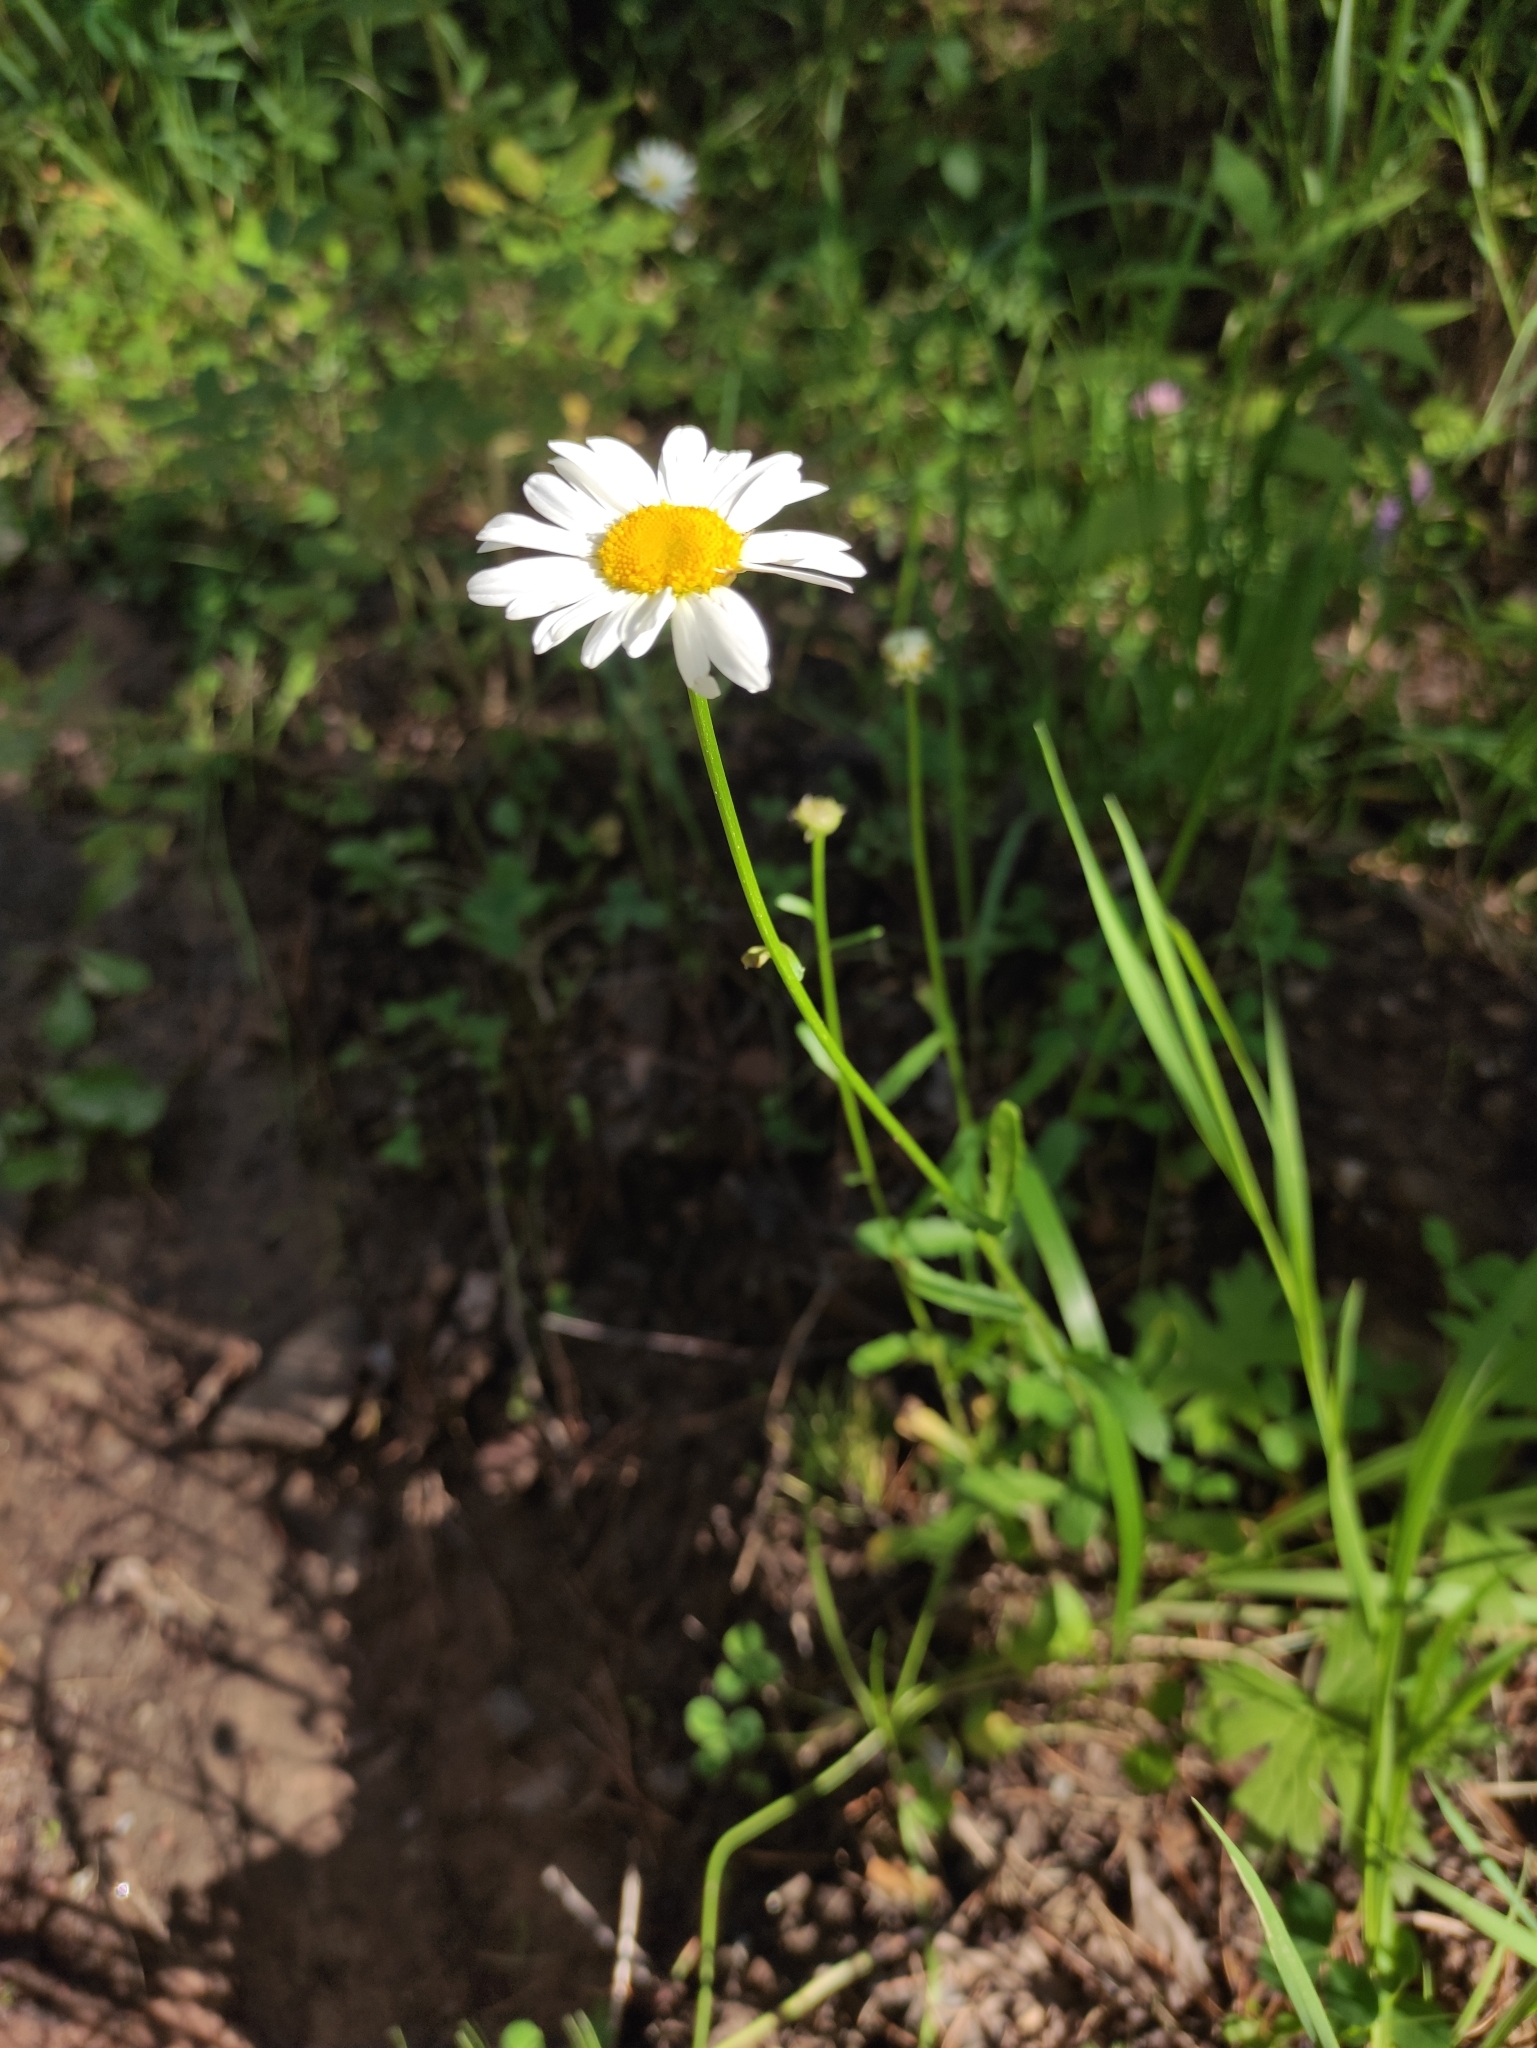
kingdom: Plantae
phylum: Tracheophyta
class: Magnoliopsida
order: Asterales
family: Asteraceae
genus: Leucanthemum
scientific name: Leucanthemum ircutianum
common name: Daisy
